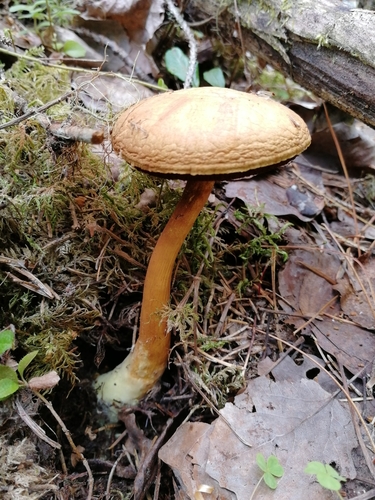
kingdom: Fungi
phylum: Basidiomycota
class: Agaricomycetes
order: Boletales
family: Boletaceae
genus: Chalciporus
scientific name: Chalciporus piperatus
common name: Peppery bolete
